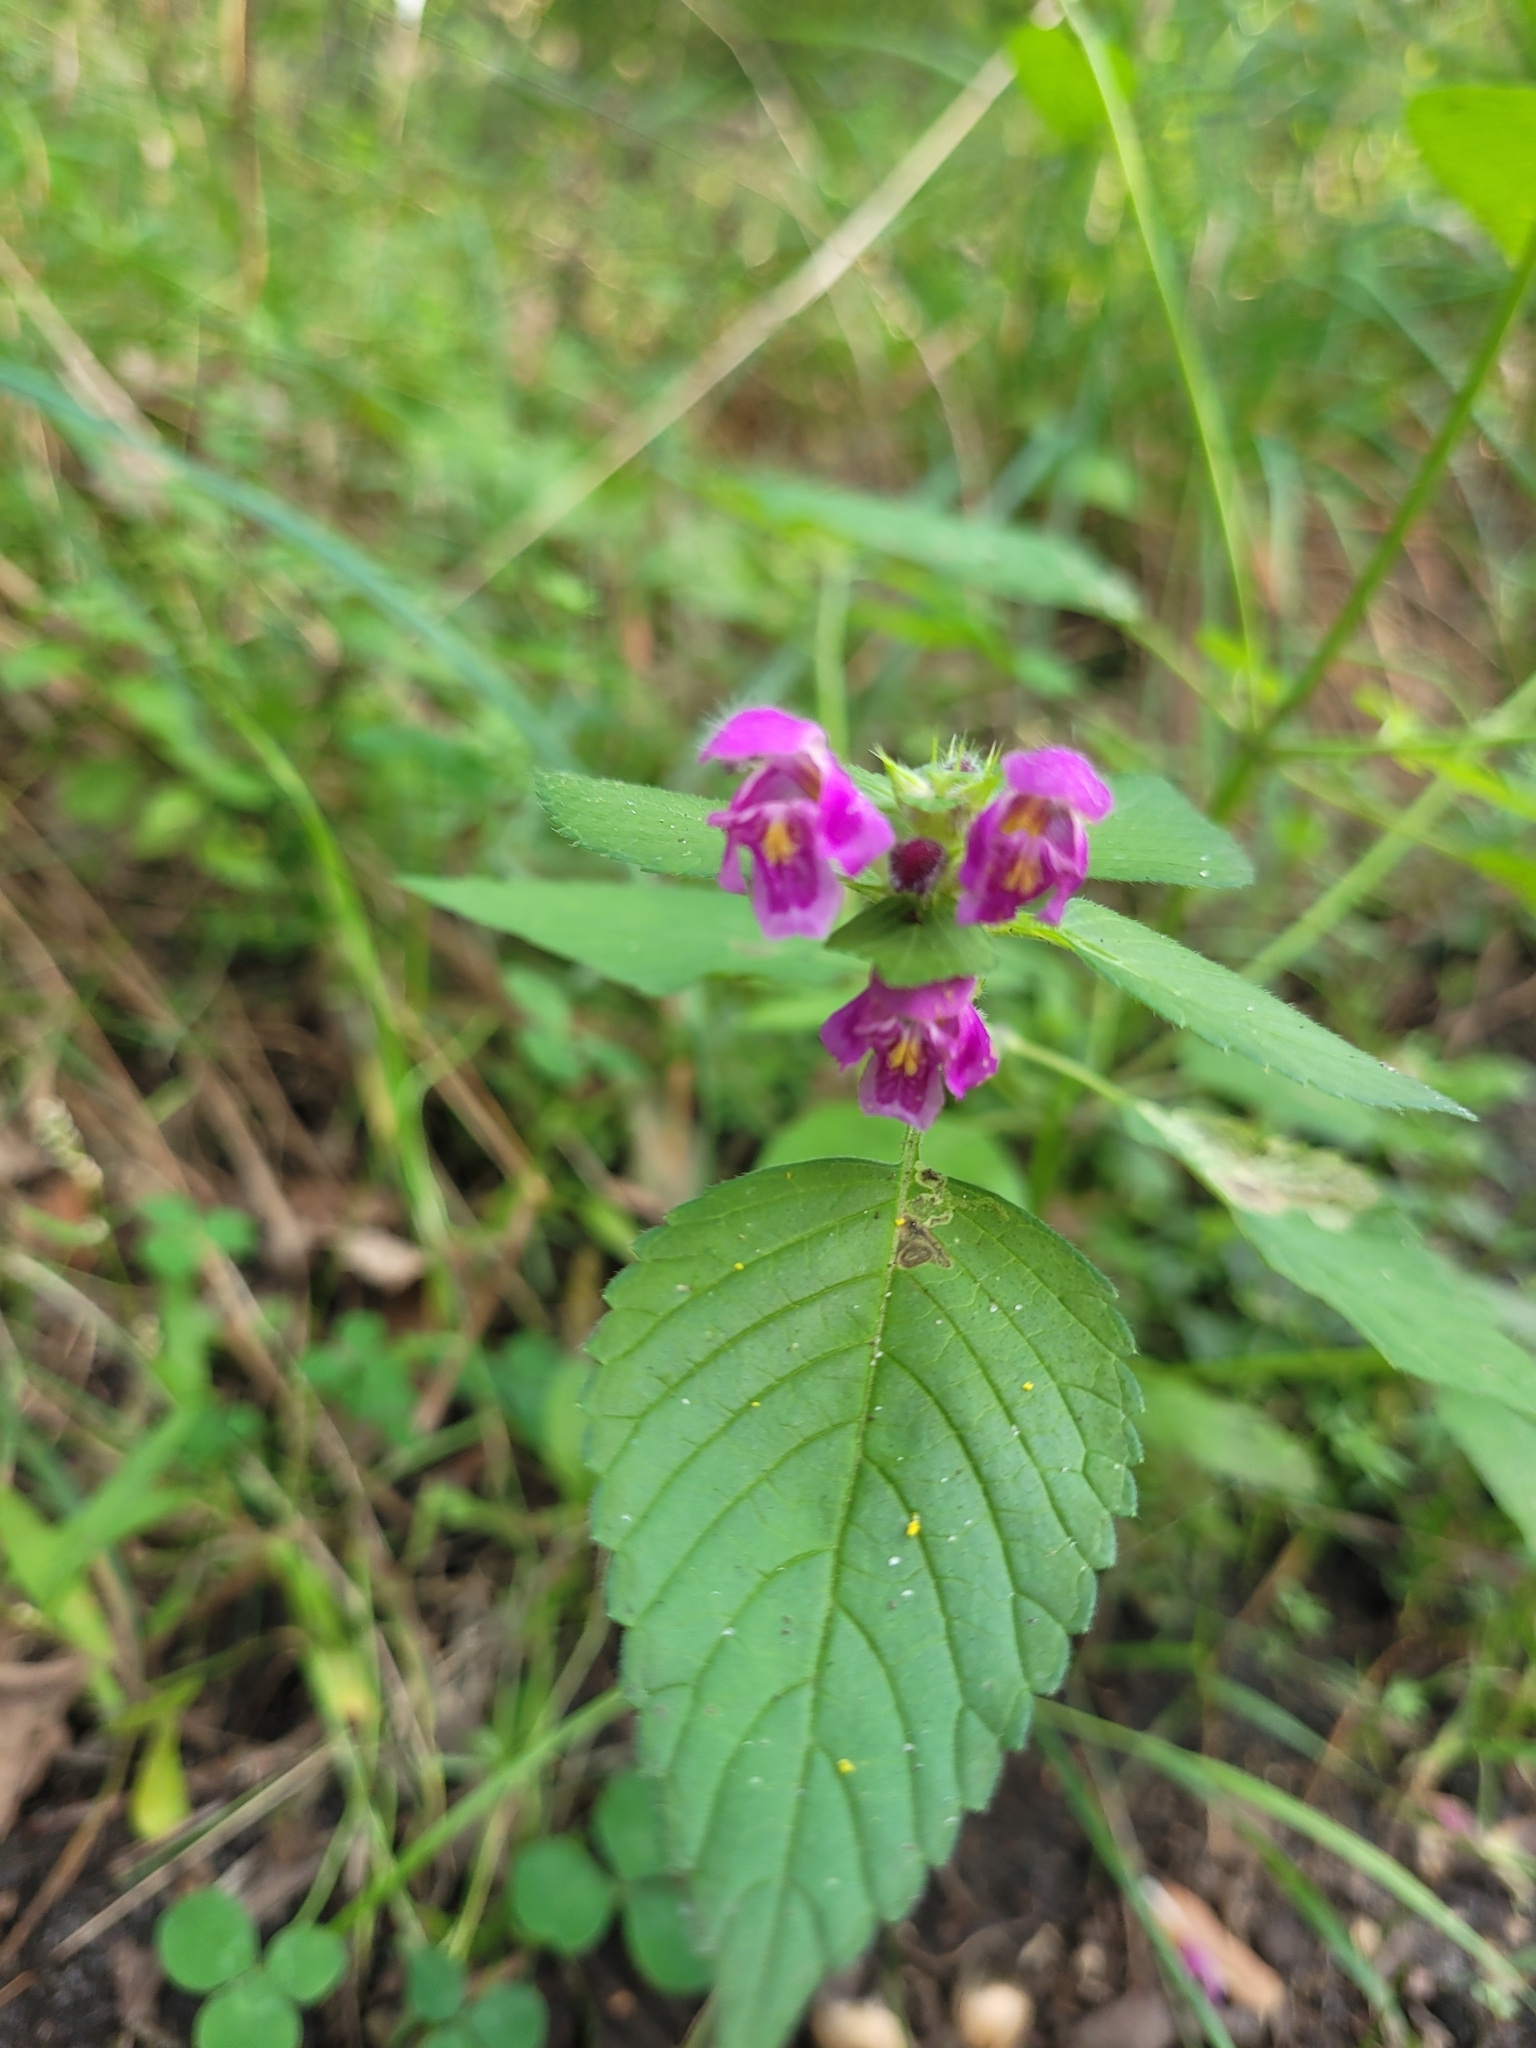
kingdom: Plantae
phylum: Tracheophyta
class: Magnoliopsida
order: Lamiales
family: Lamiaceae
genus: Galeopsis
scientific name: Galeopsis pubescens
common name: Downy hemp-nettle
